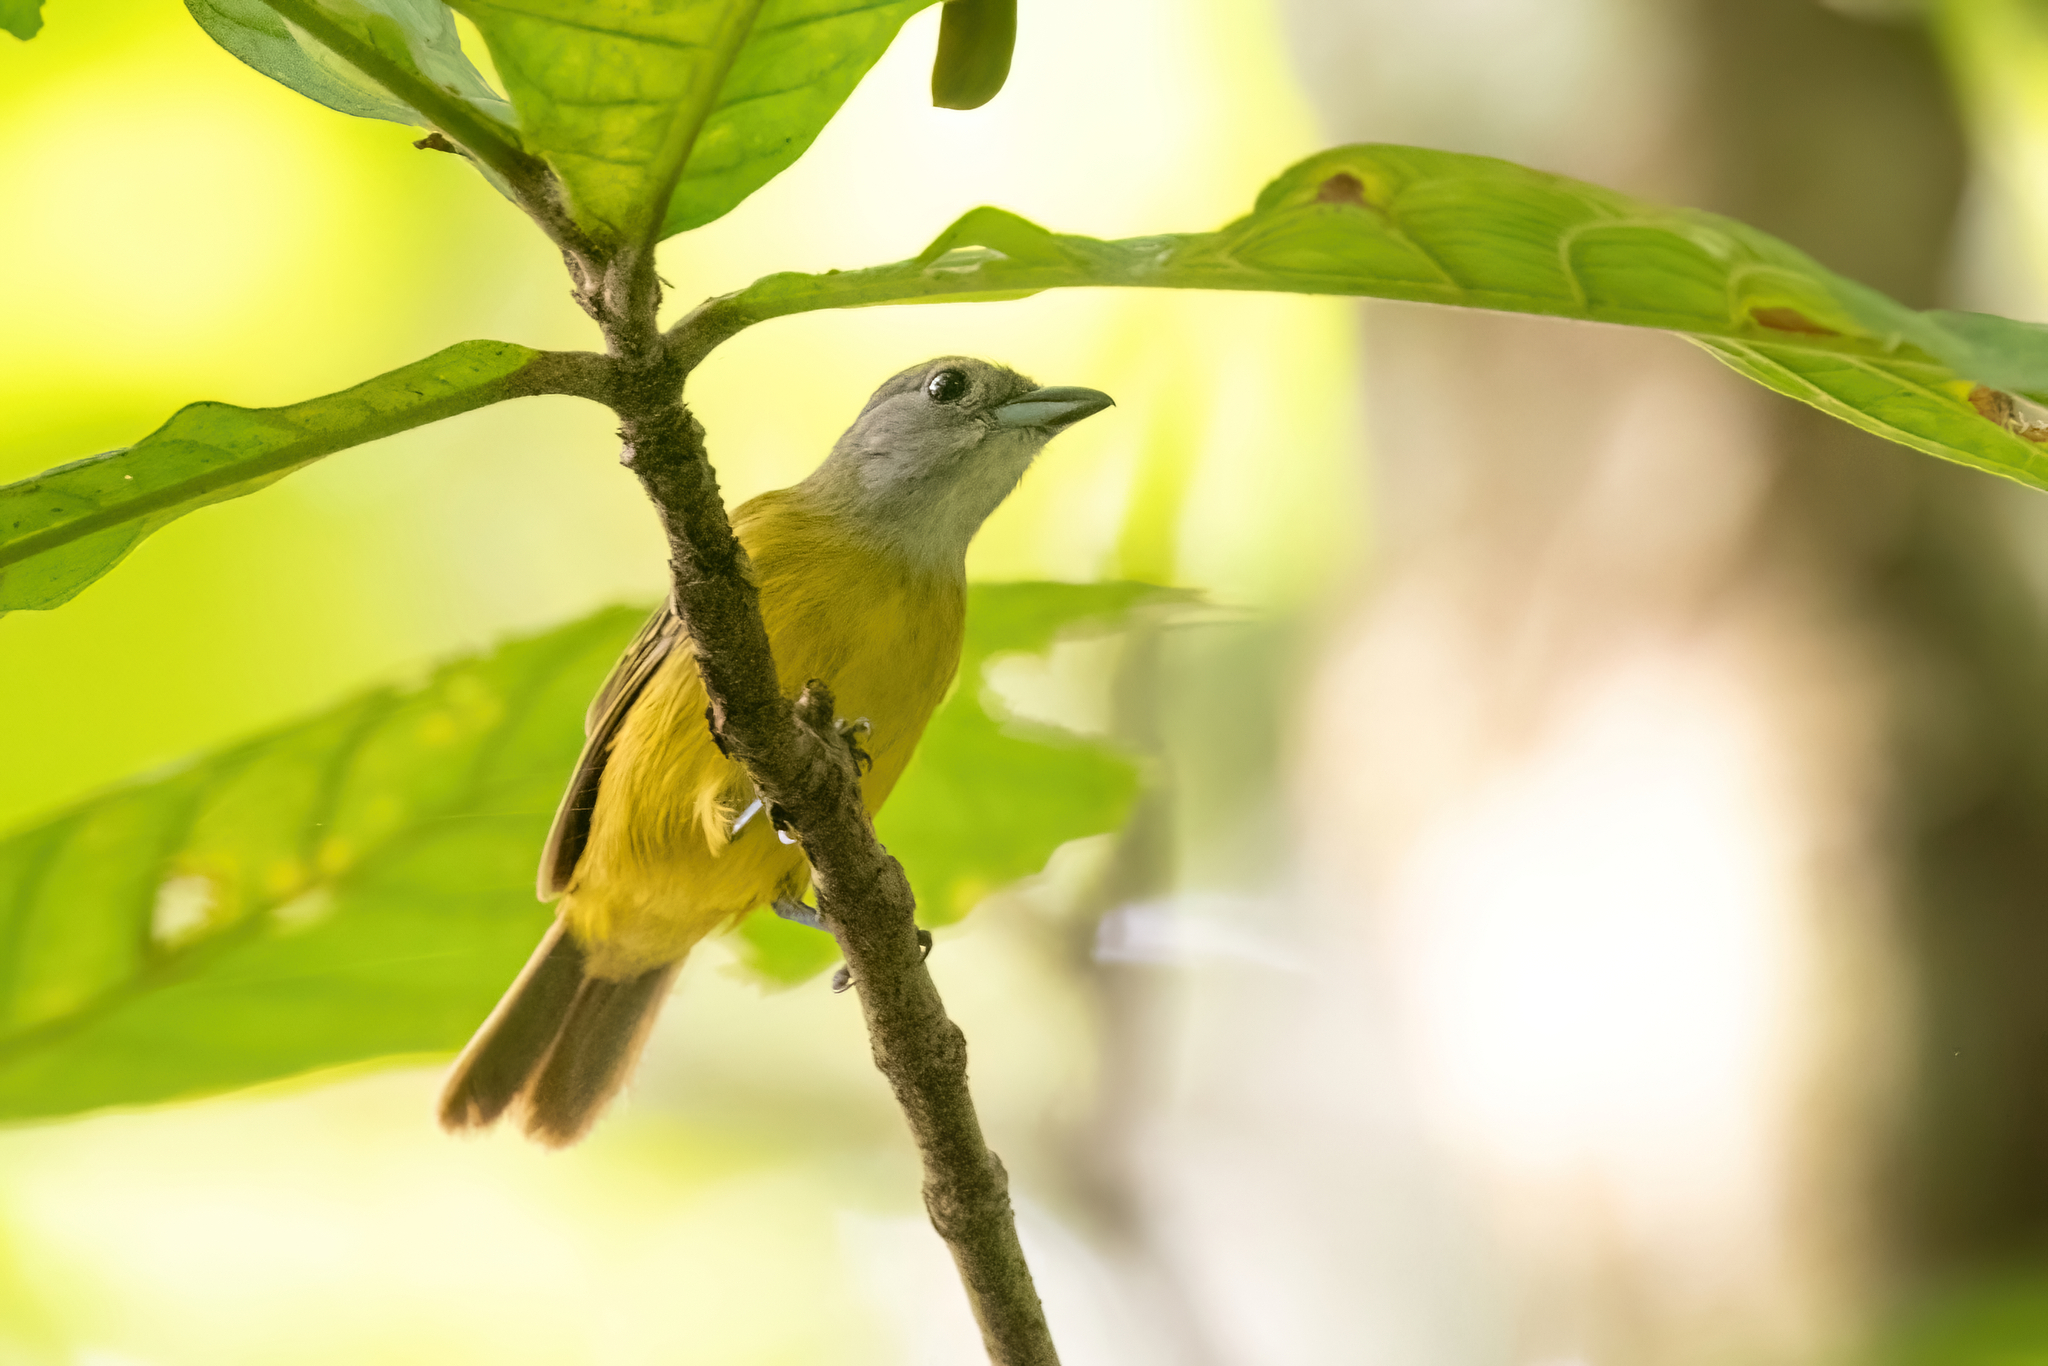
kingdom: Animalia
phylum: Chordata
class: Aves
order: Passeriformes
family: Thraupidae
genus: Loriotus
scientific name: Loriotus luctuosus
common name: White-shouldered tanager
